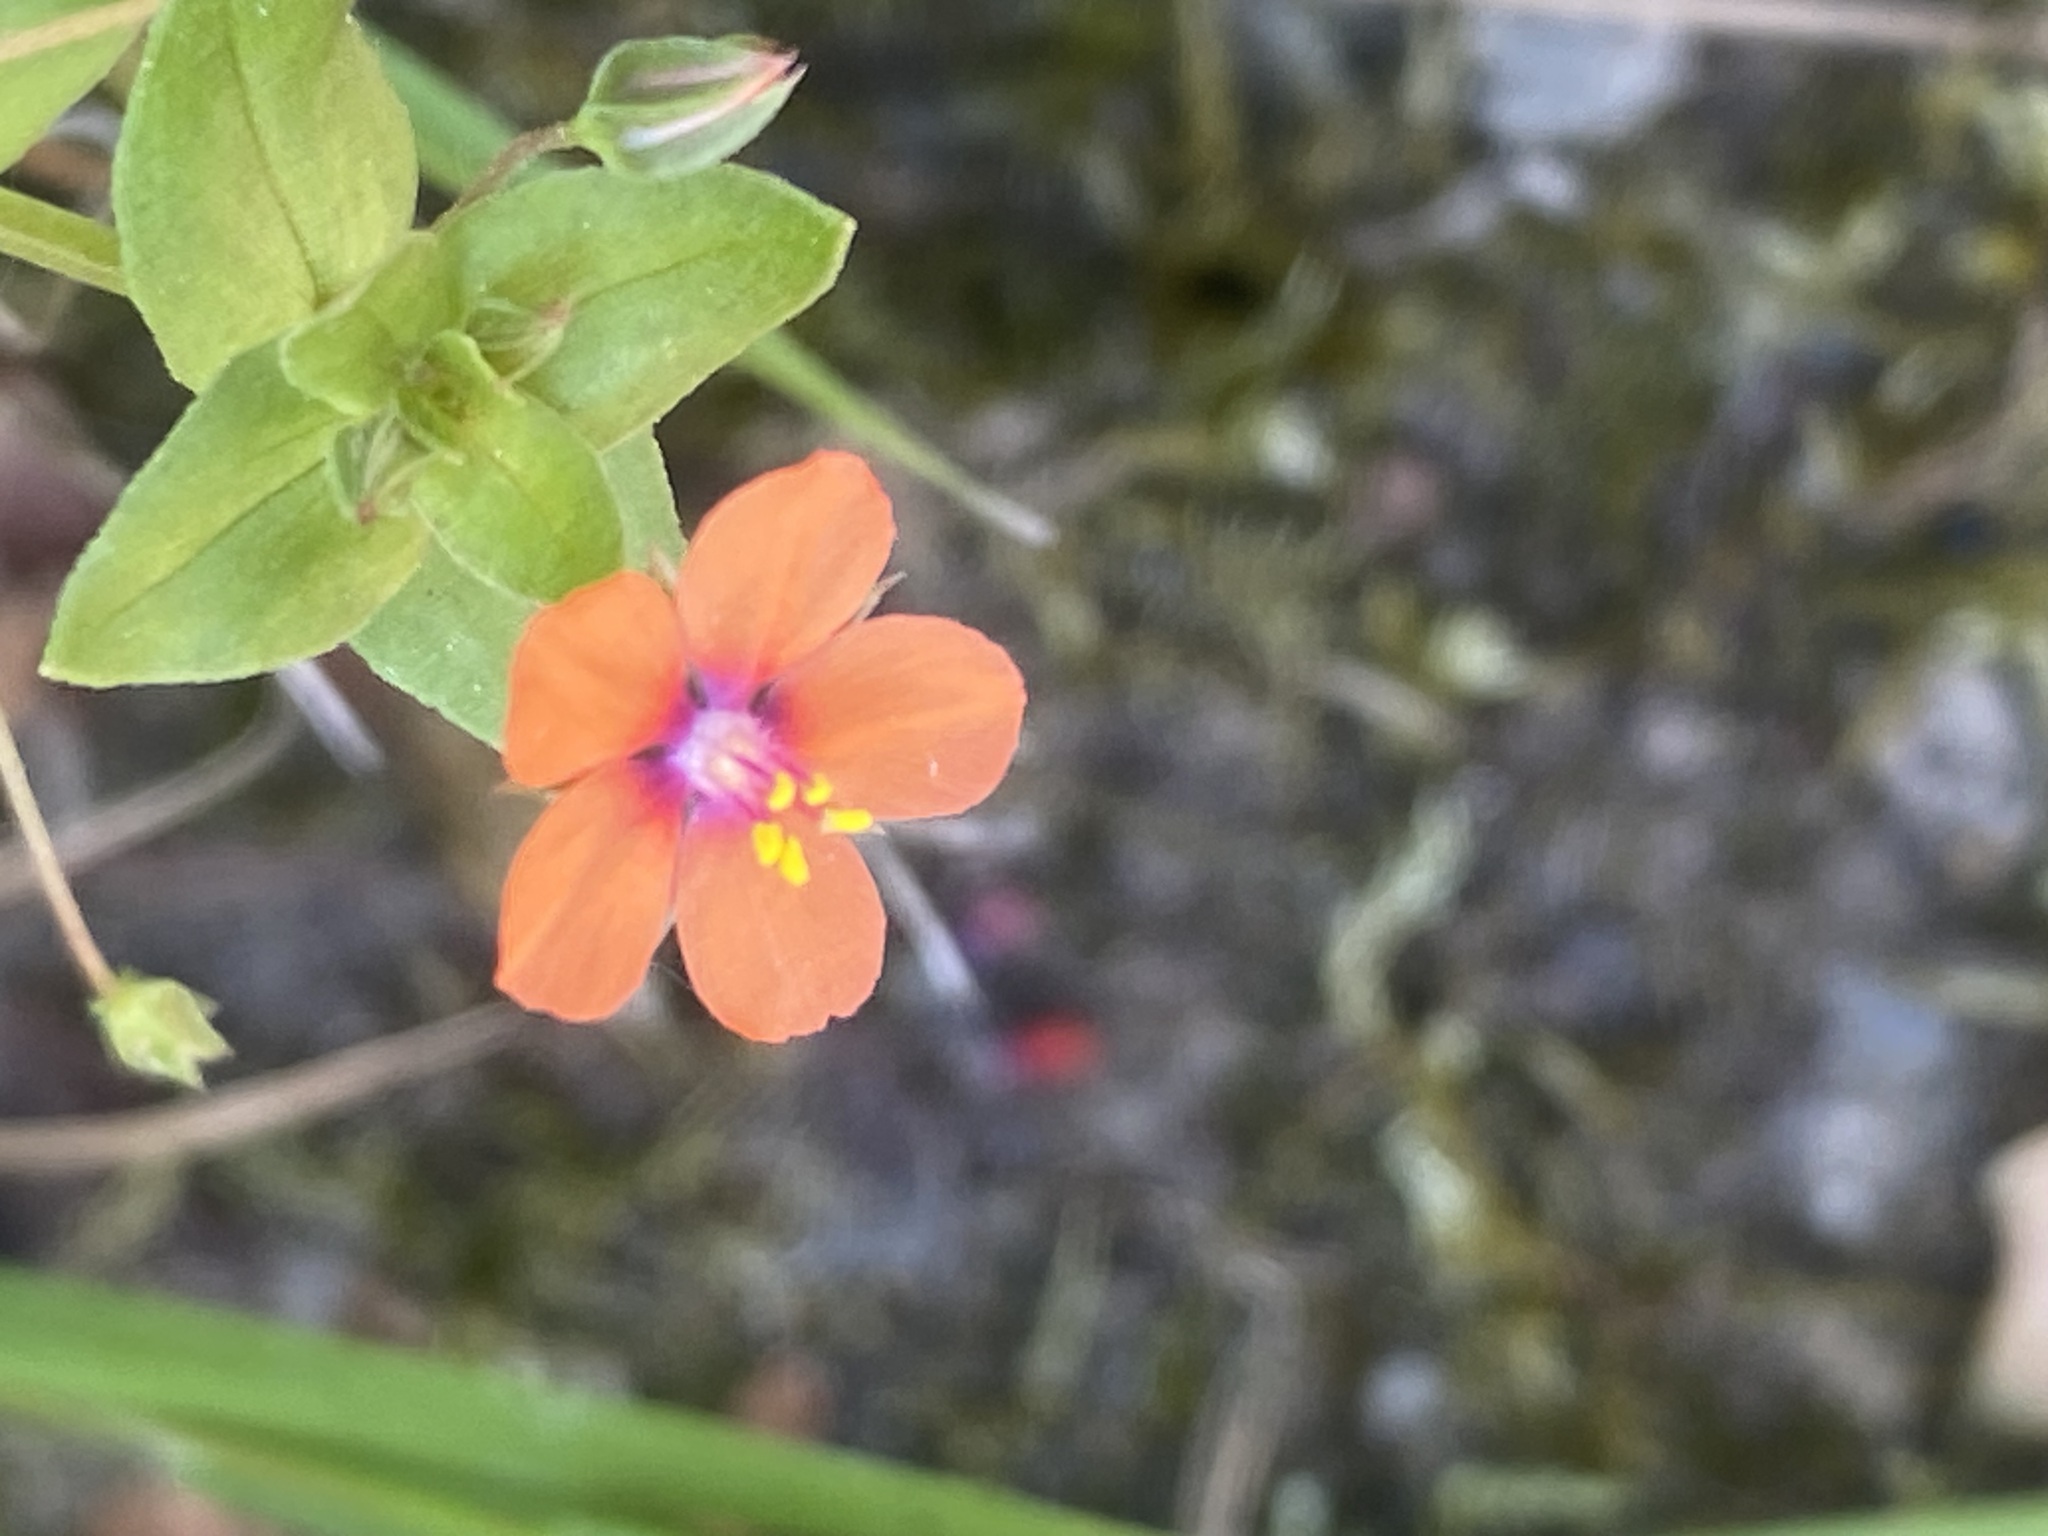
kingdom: Plantae
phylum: Tracheophyta
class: Magnoliopsida
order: Ericales
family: Primulaceae
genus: Lysimachia
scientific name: Lysimachia arvensis
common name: Scarlet pimpernel
